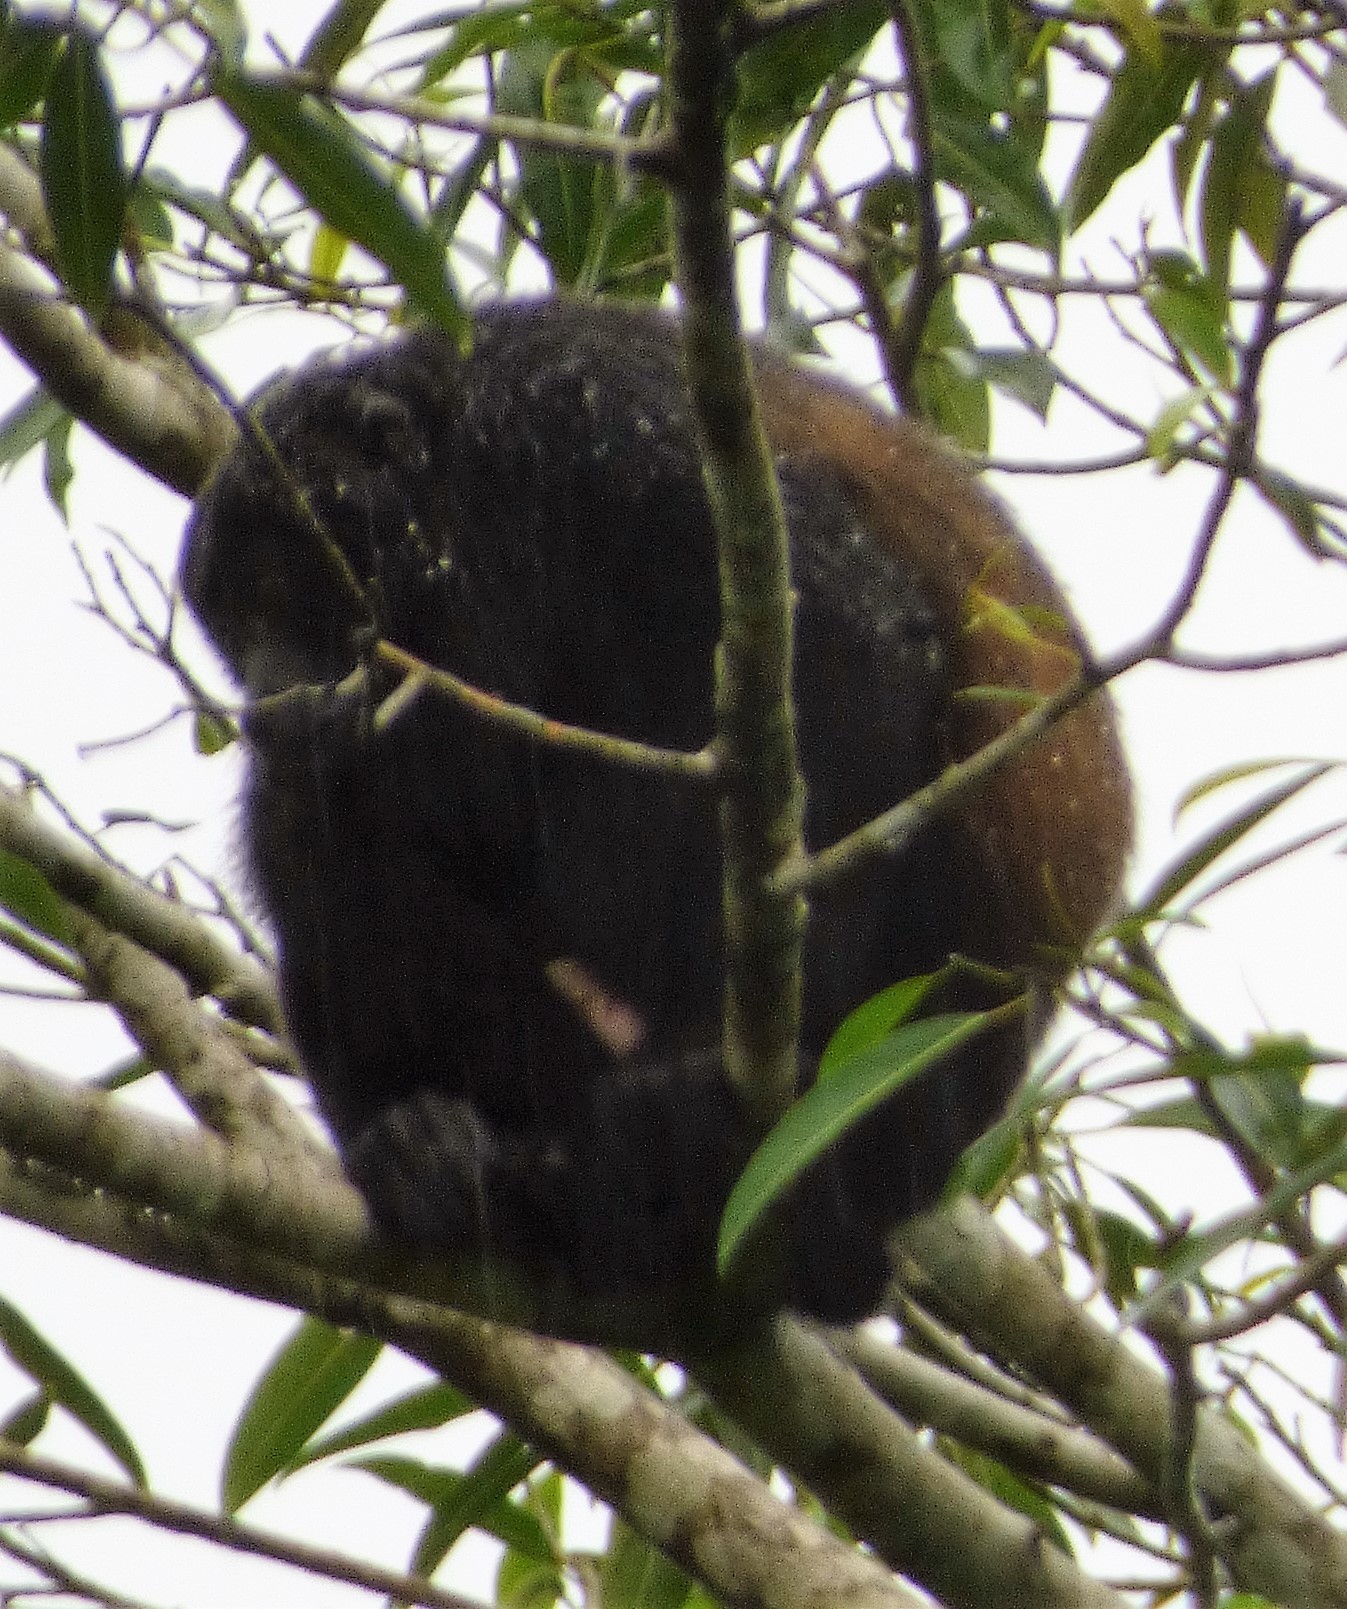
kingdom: Animalia
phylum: Chordata
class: Mammalia
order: Primates
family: Atelidae
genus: Alouatta
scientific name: Alouatta palliata
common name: Mantled howler
